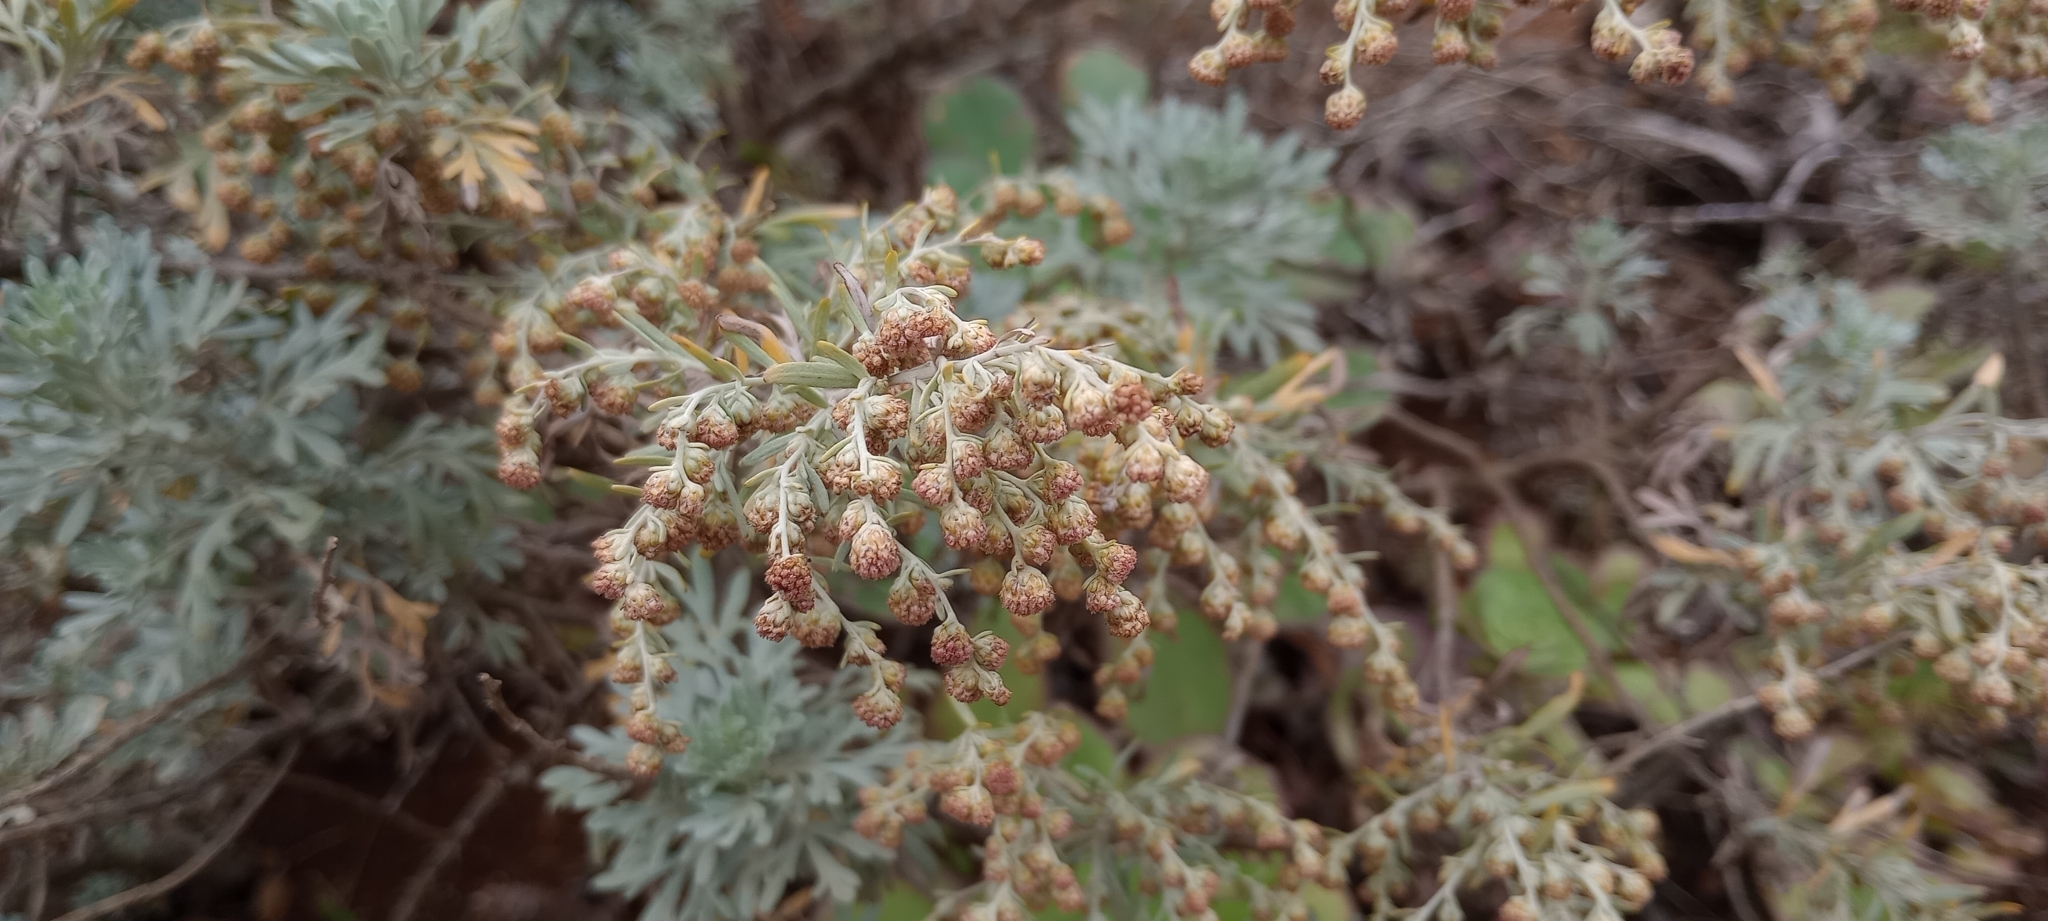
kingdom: Plantae
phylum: Tracheophyta
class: Magnoliopsida
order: Asterales
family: Asteraceae
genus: Artemisia
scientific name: Artemisia thuscula
